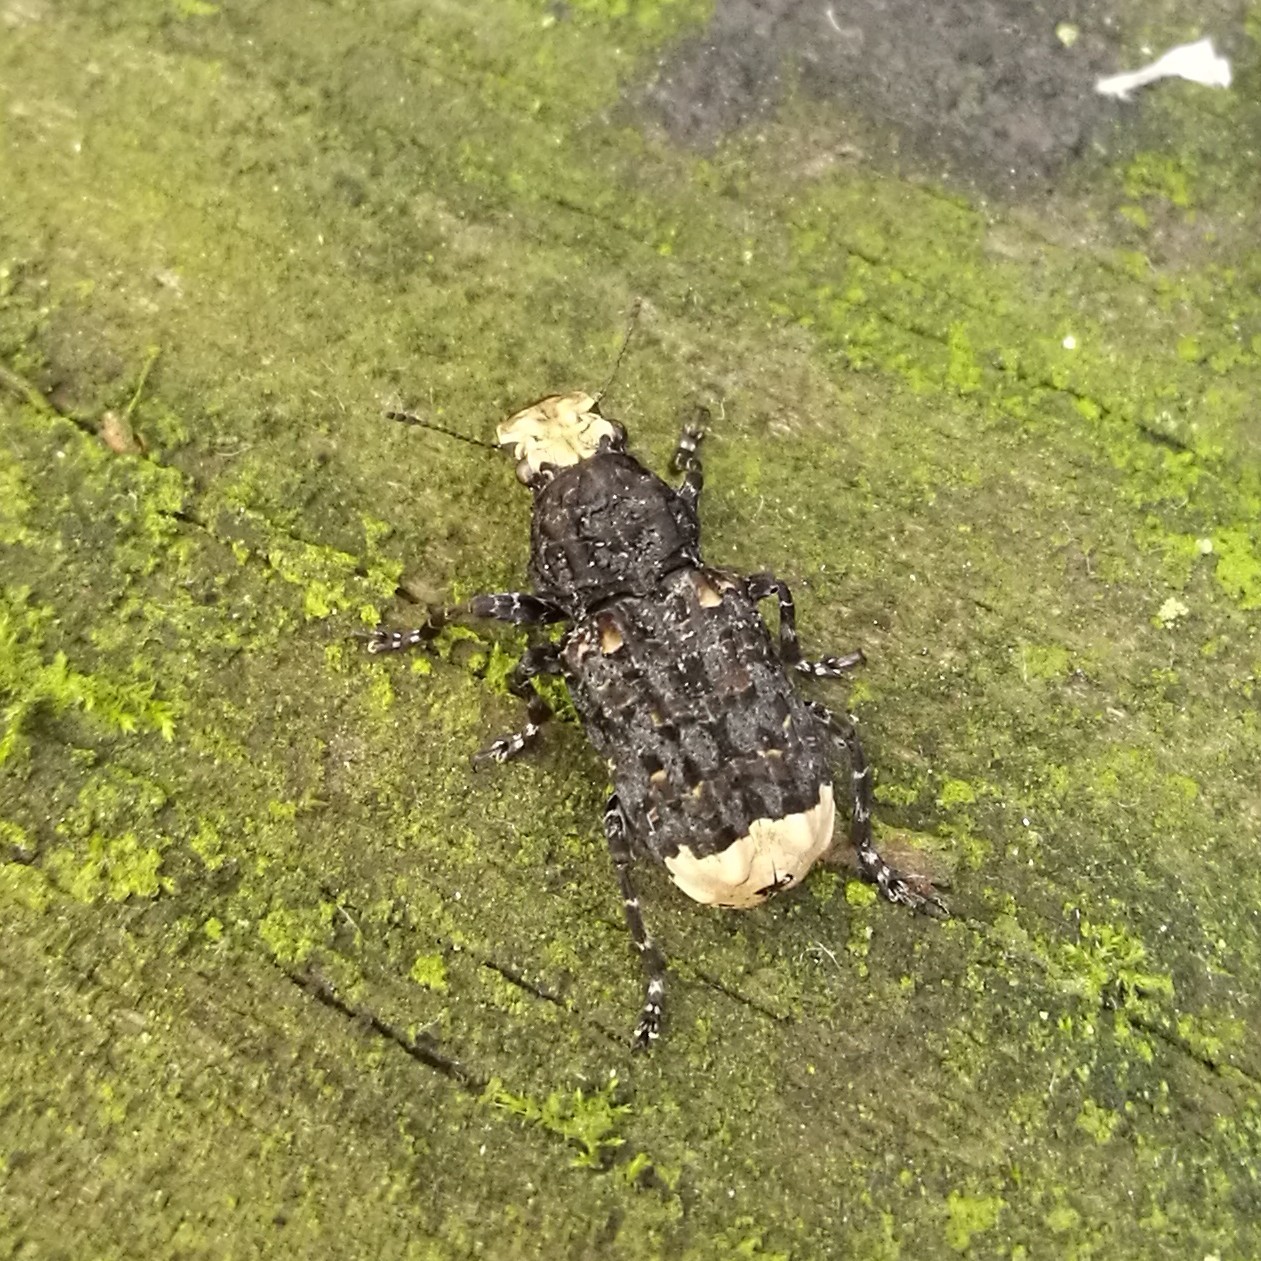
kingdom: Animalia
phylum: Arthropoda
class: Insecta
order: Coleoptera
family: Anthribidae
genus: Platyrhinus
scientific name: Platyrhinus resinosus
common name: Cramp-ball fungus weevil
